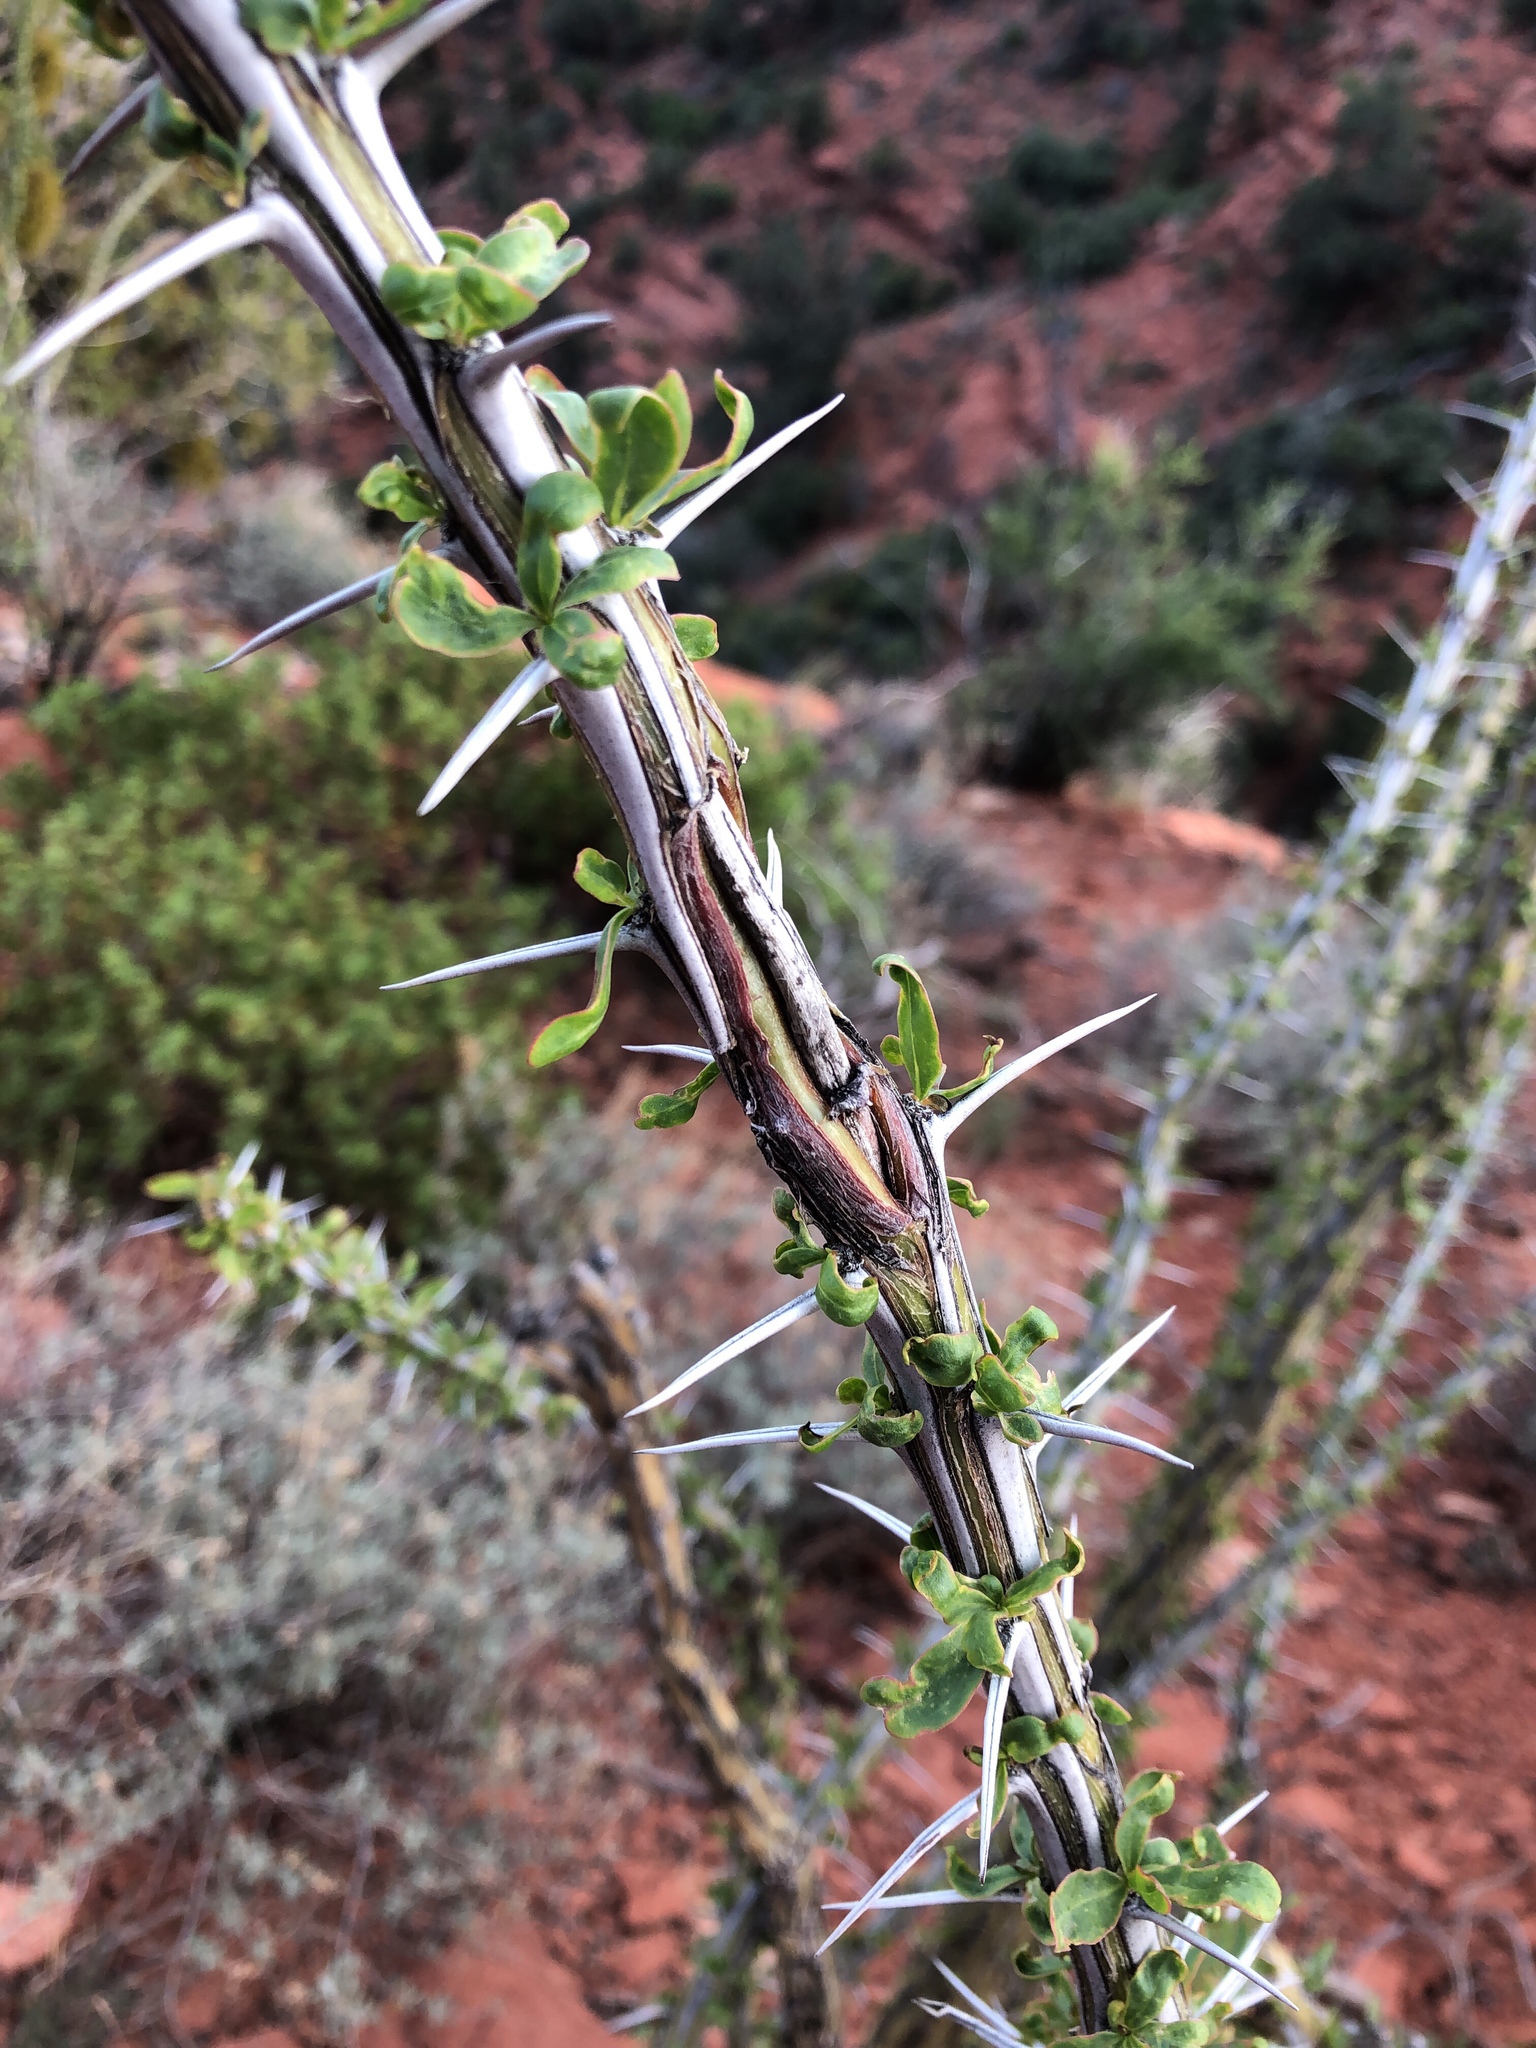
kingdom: Plantae
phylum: Tracheophyta
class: Magnoliopsida
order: Ericales
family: Fouquieriaceae
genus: Fouquieria
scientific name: Fouquieria splendens
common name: Vine-cactus
